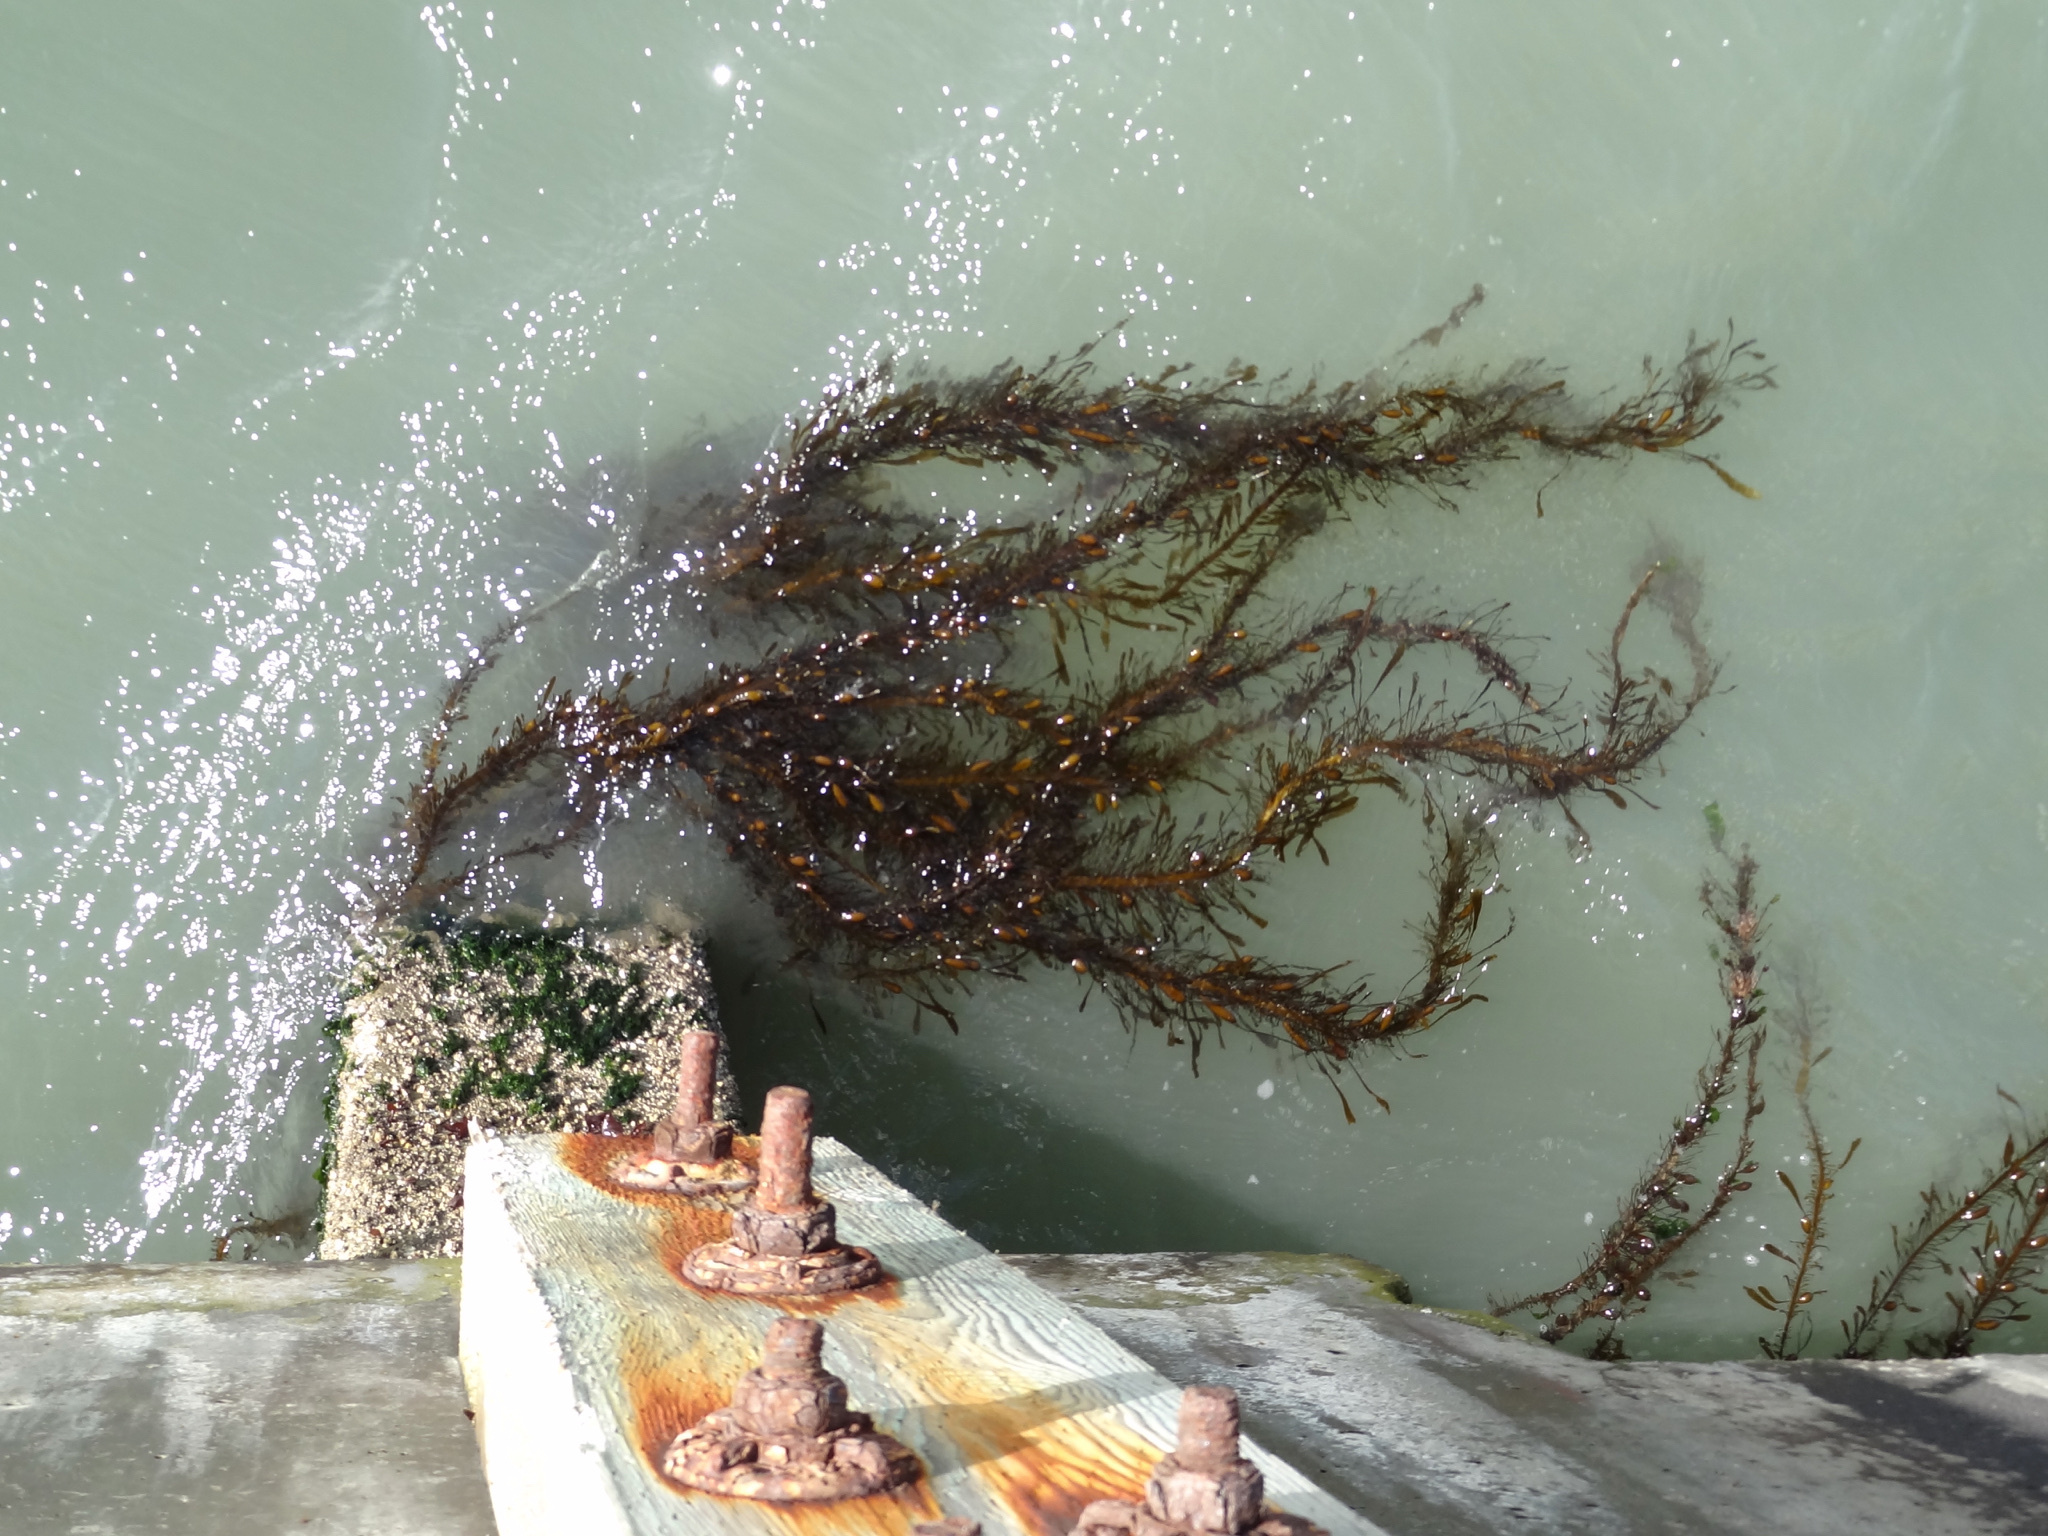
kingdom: Chromista
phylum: Ochrophyta
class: Phaeophyceae
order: Laminariales
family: Lessoniaceae
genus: Egregia
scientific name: Egregia menziesii
